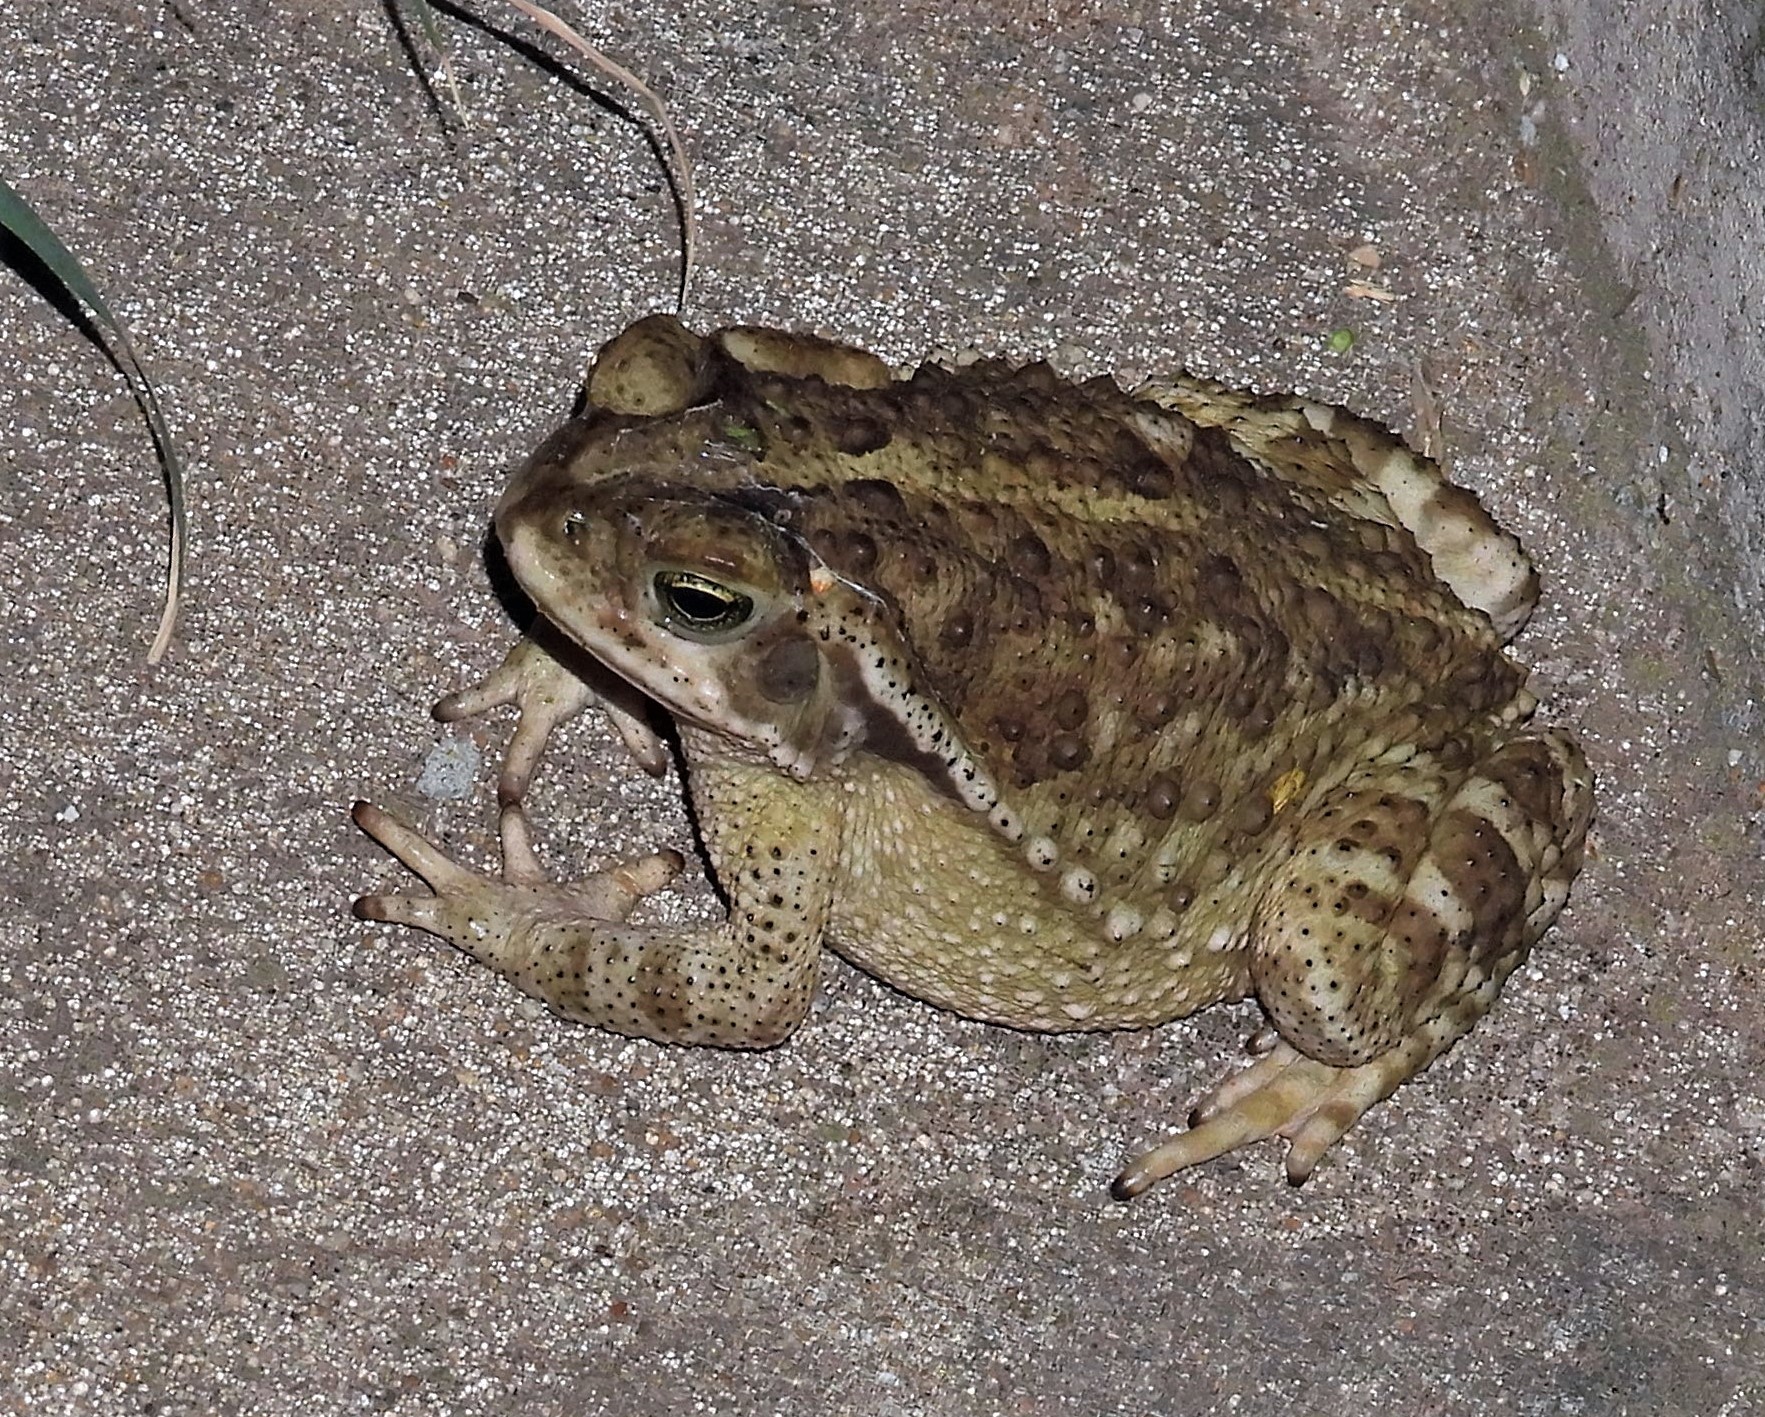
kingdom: Animalia
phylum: Chordata
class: Amphibia
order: Anura
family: Bufonidae
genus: Rhinella
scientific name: Rhinella arenarum
